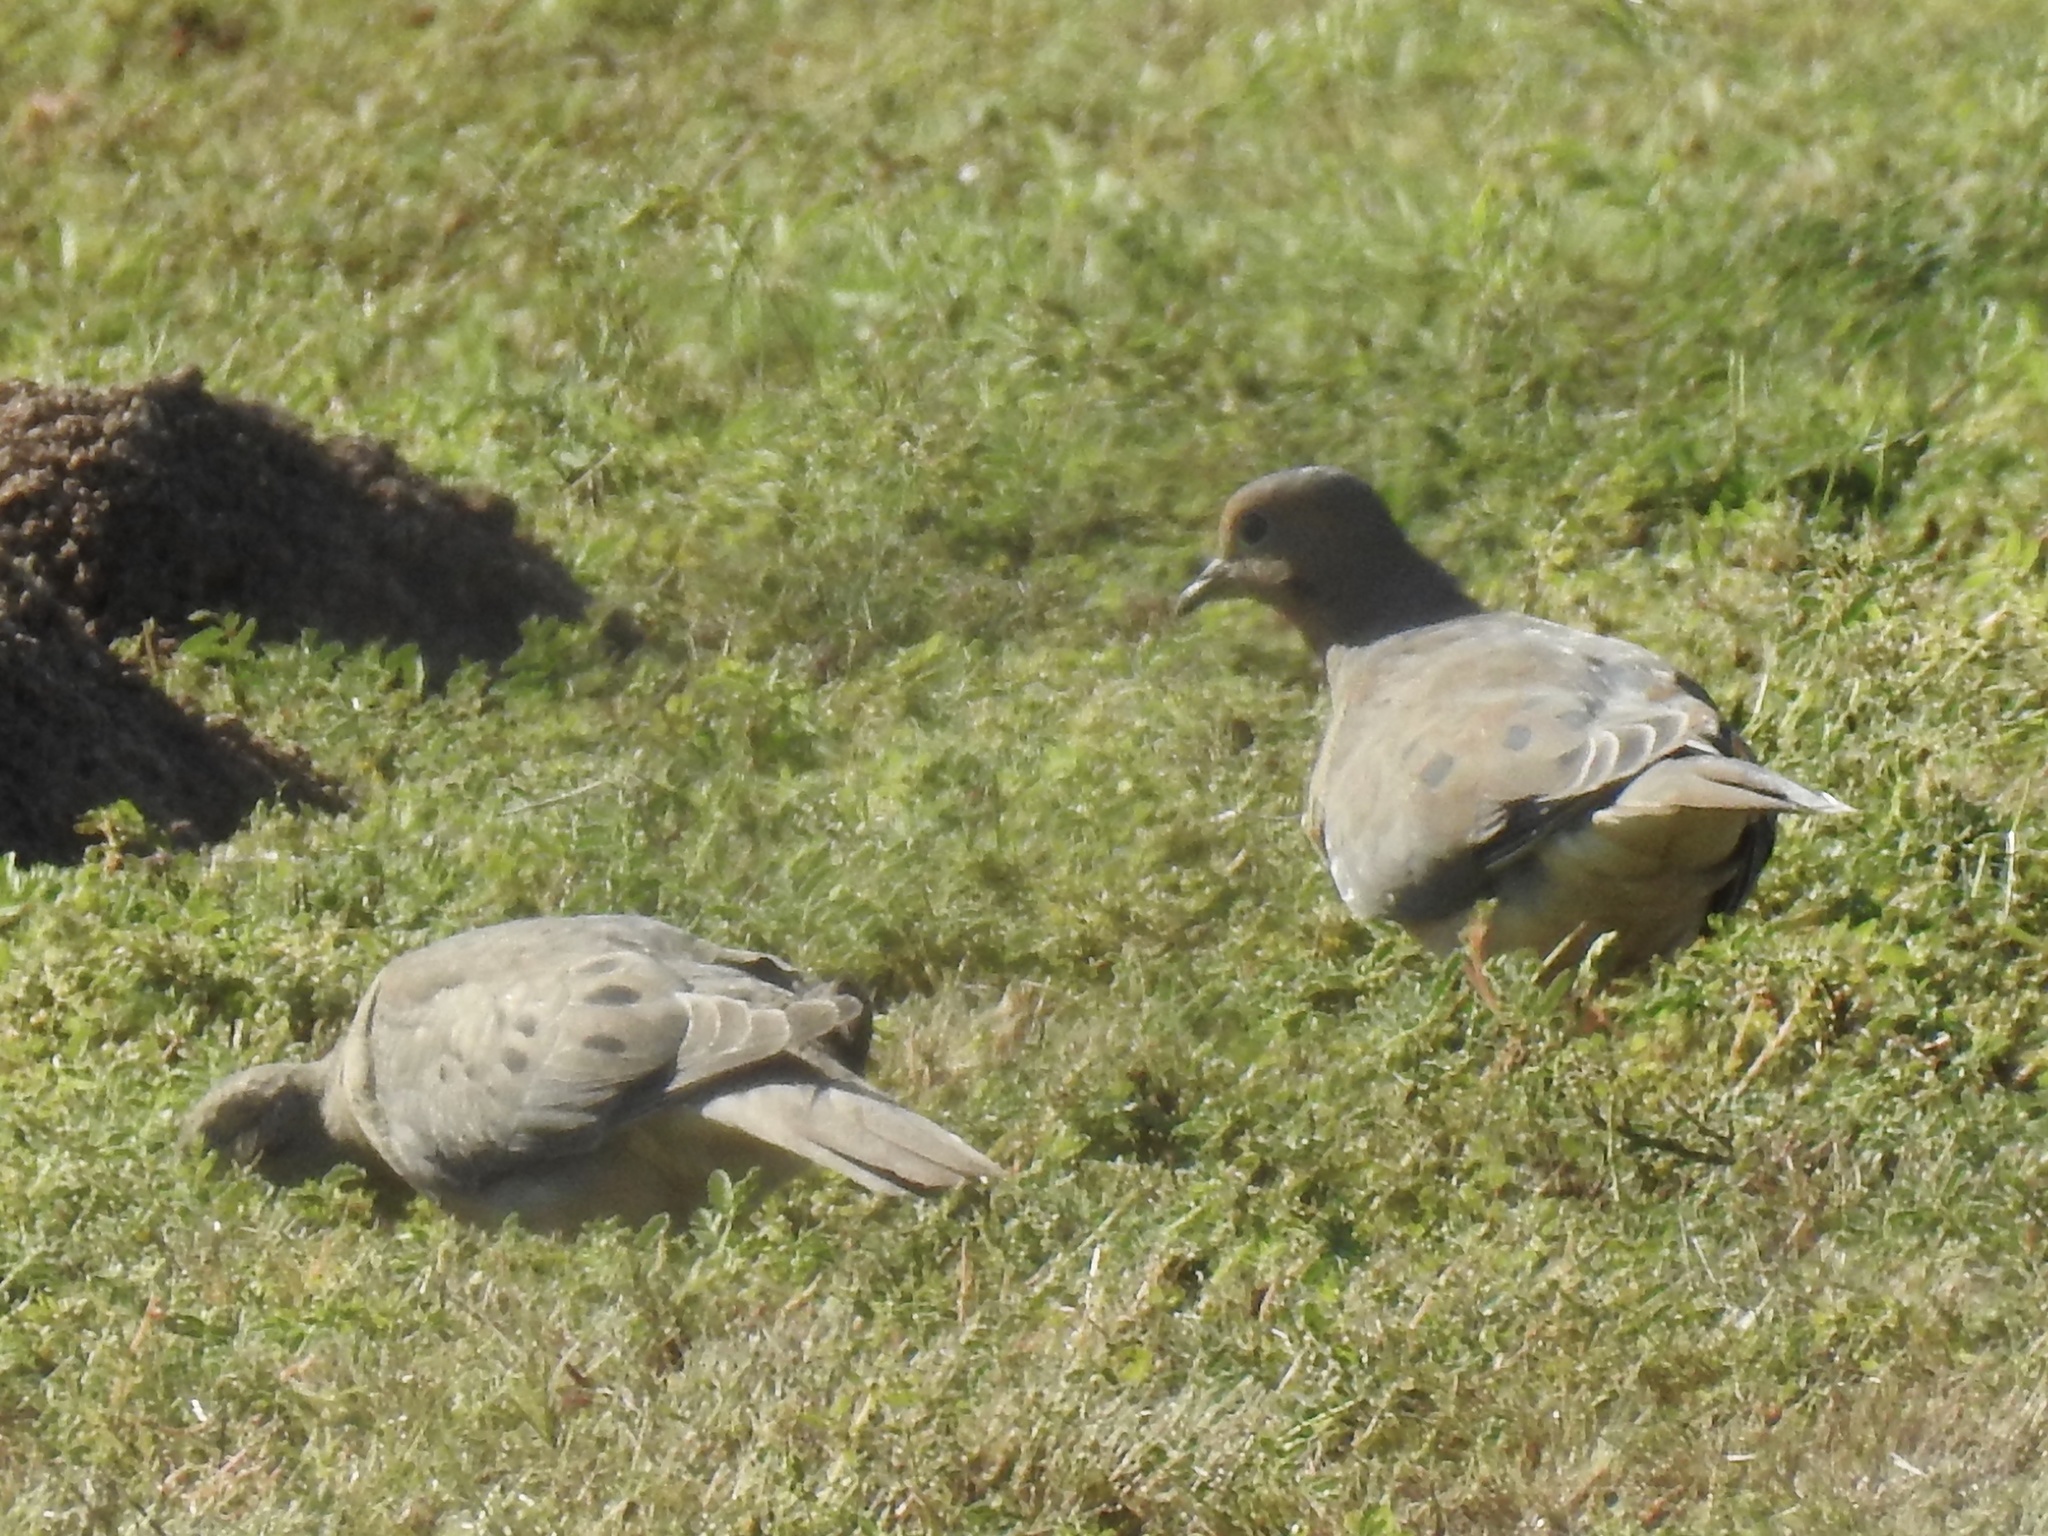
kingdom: Animalia
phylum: Chordata
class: Aves
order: Columbiformes
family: Columbidae
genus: Zenaida
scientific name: Zenaida macroura
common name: Mourning dove
